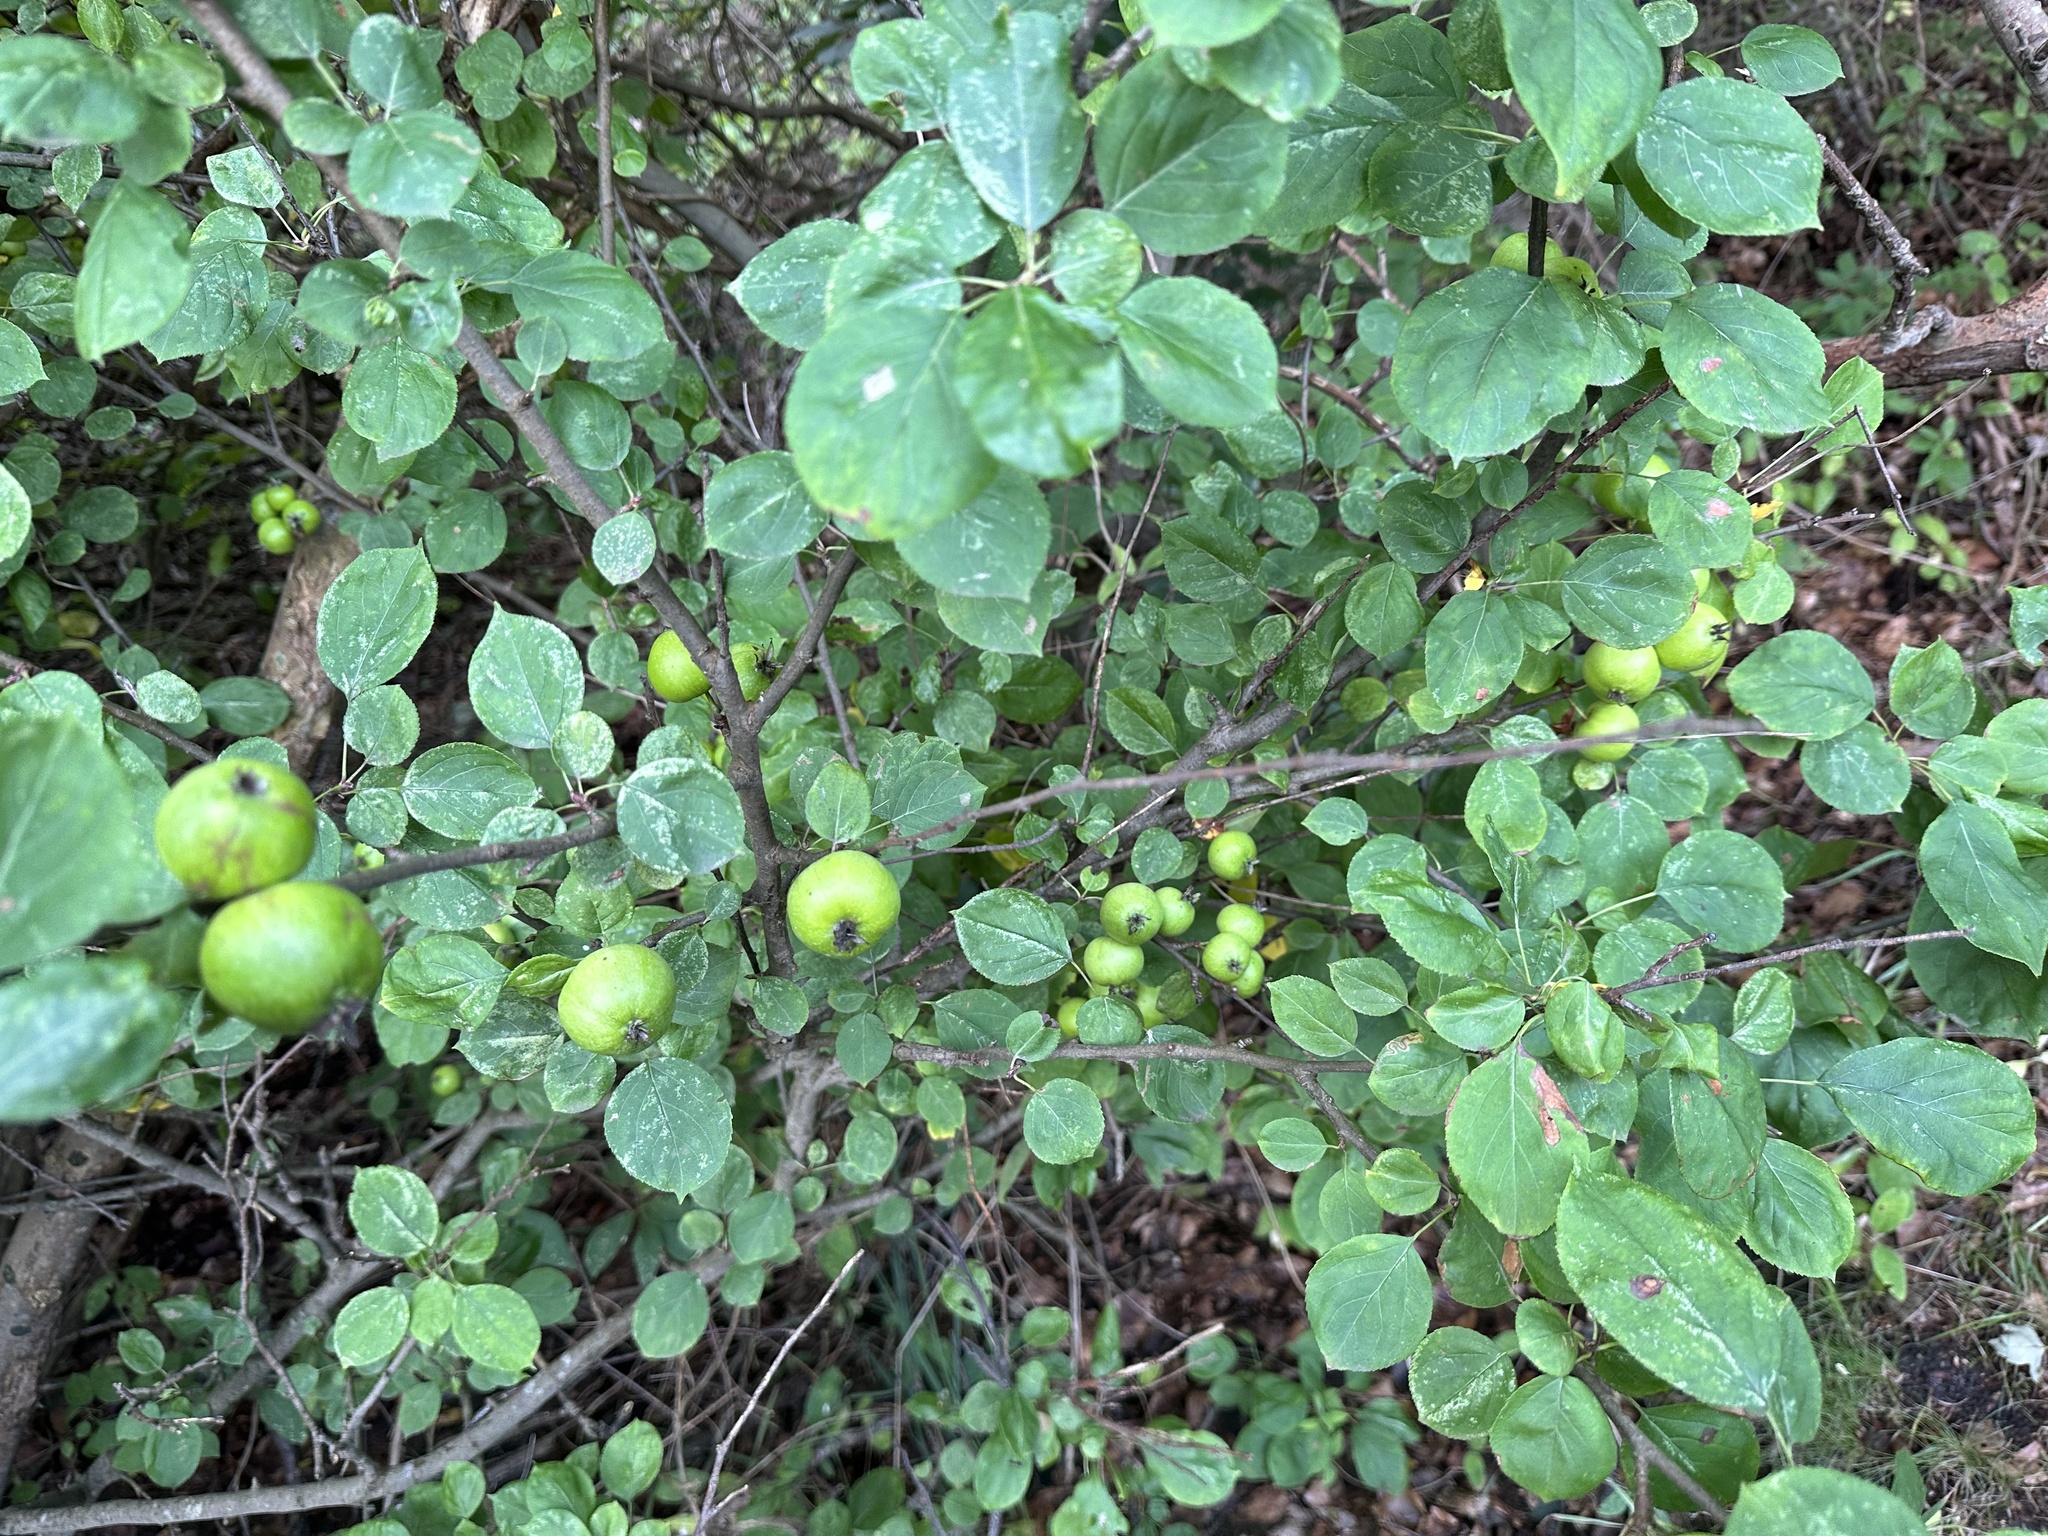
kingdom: Plantae
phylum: Tracheophyta
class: Magnoliopsida
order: Rosales
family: Rosaceae
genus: Malus
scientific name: Malus domestica
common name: Apple
